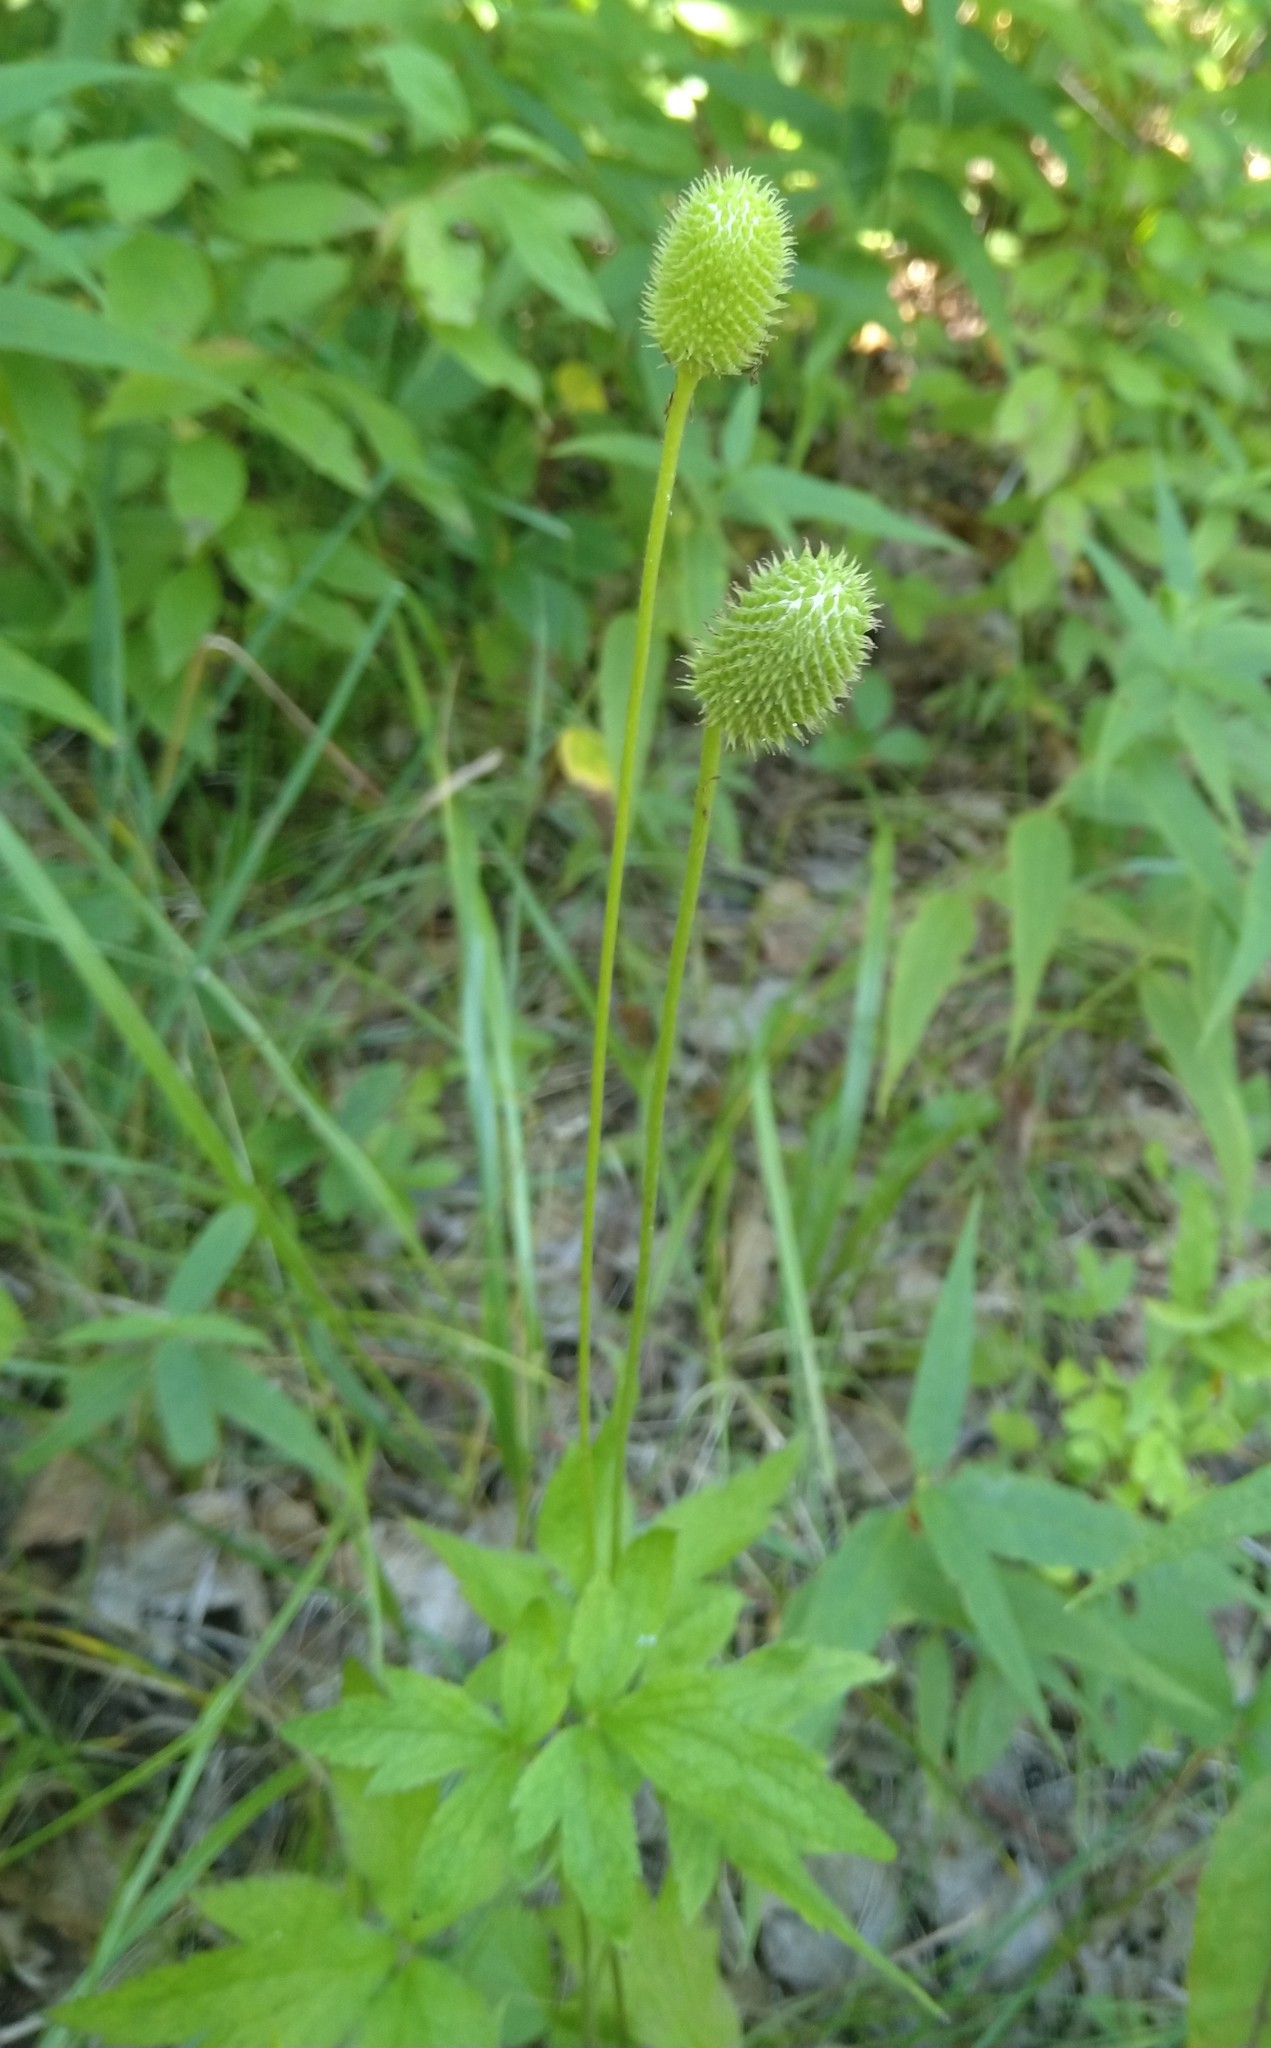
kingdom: Plantae
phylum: Tracheophyta
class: Magnoliopsida
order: Ranunculales
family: Ranunculaceae
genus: Anemone
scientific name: Anemone virginiana
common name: Tall anemone
